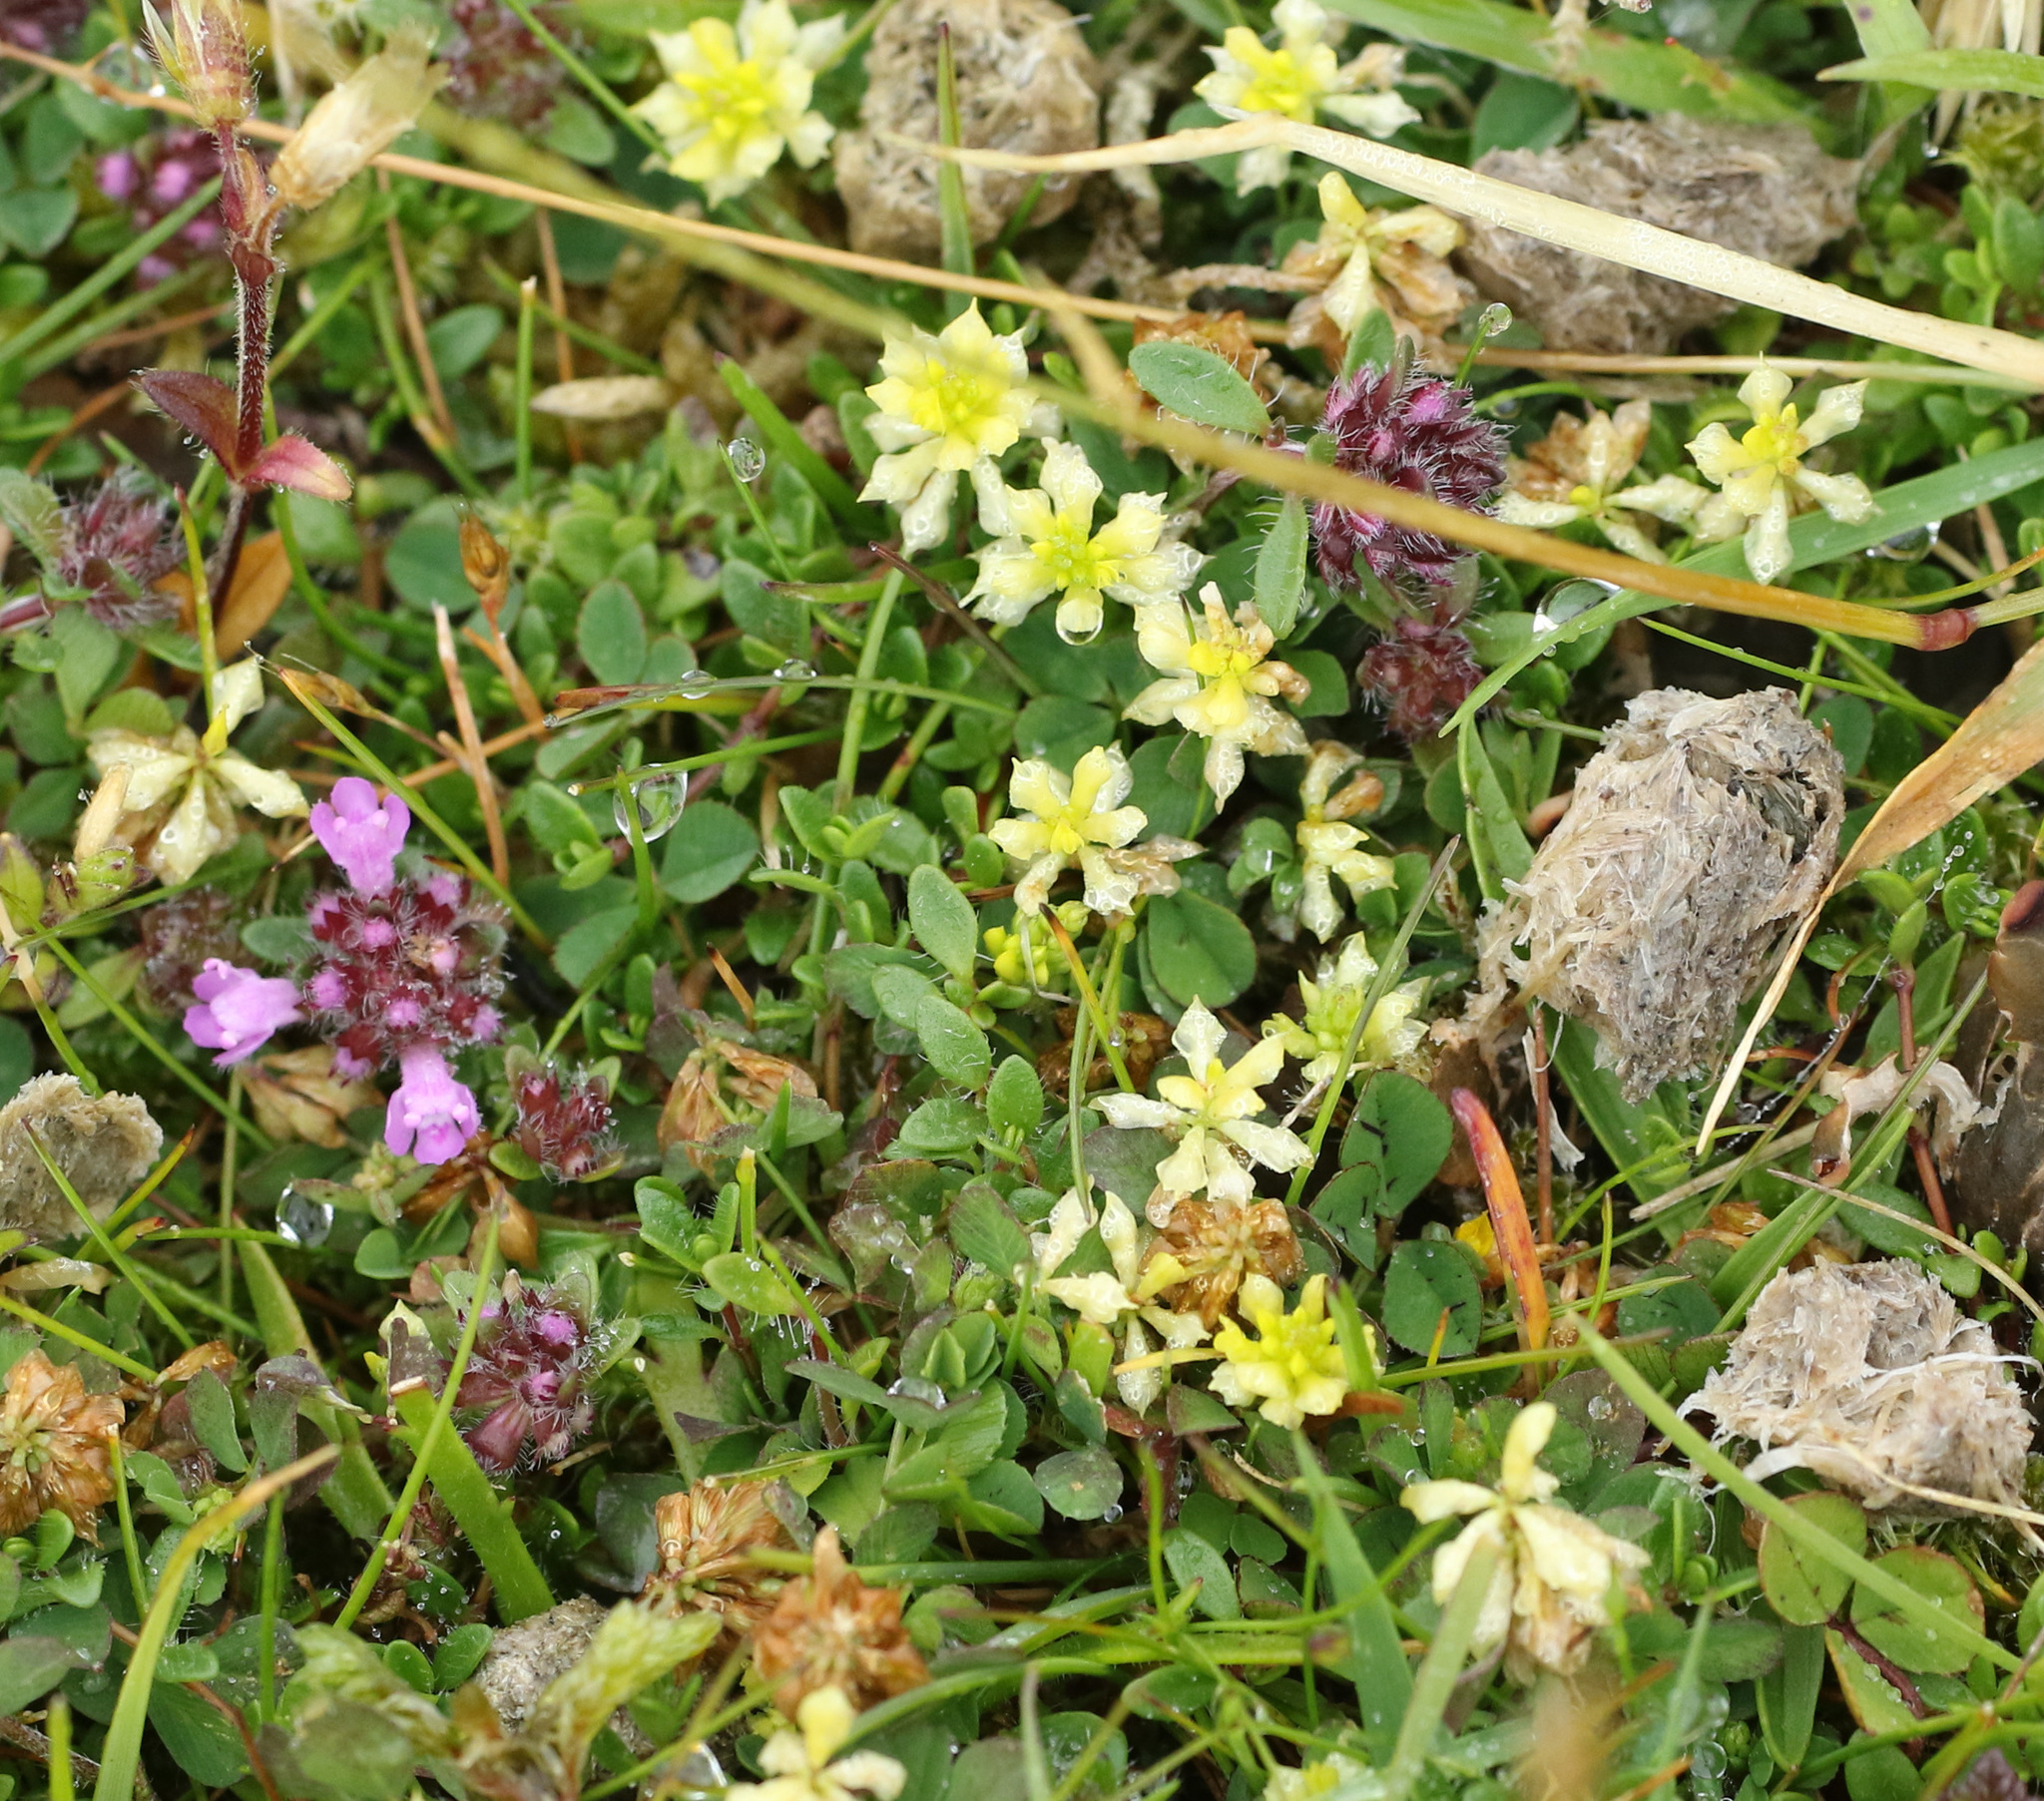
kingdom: Plantae
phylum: Tracheophyta
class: Magnoliopsida
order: Fabales
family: Fabaceae
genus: Trifolium
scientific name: Trifolium campestre
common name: Field clover
